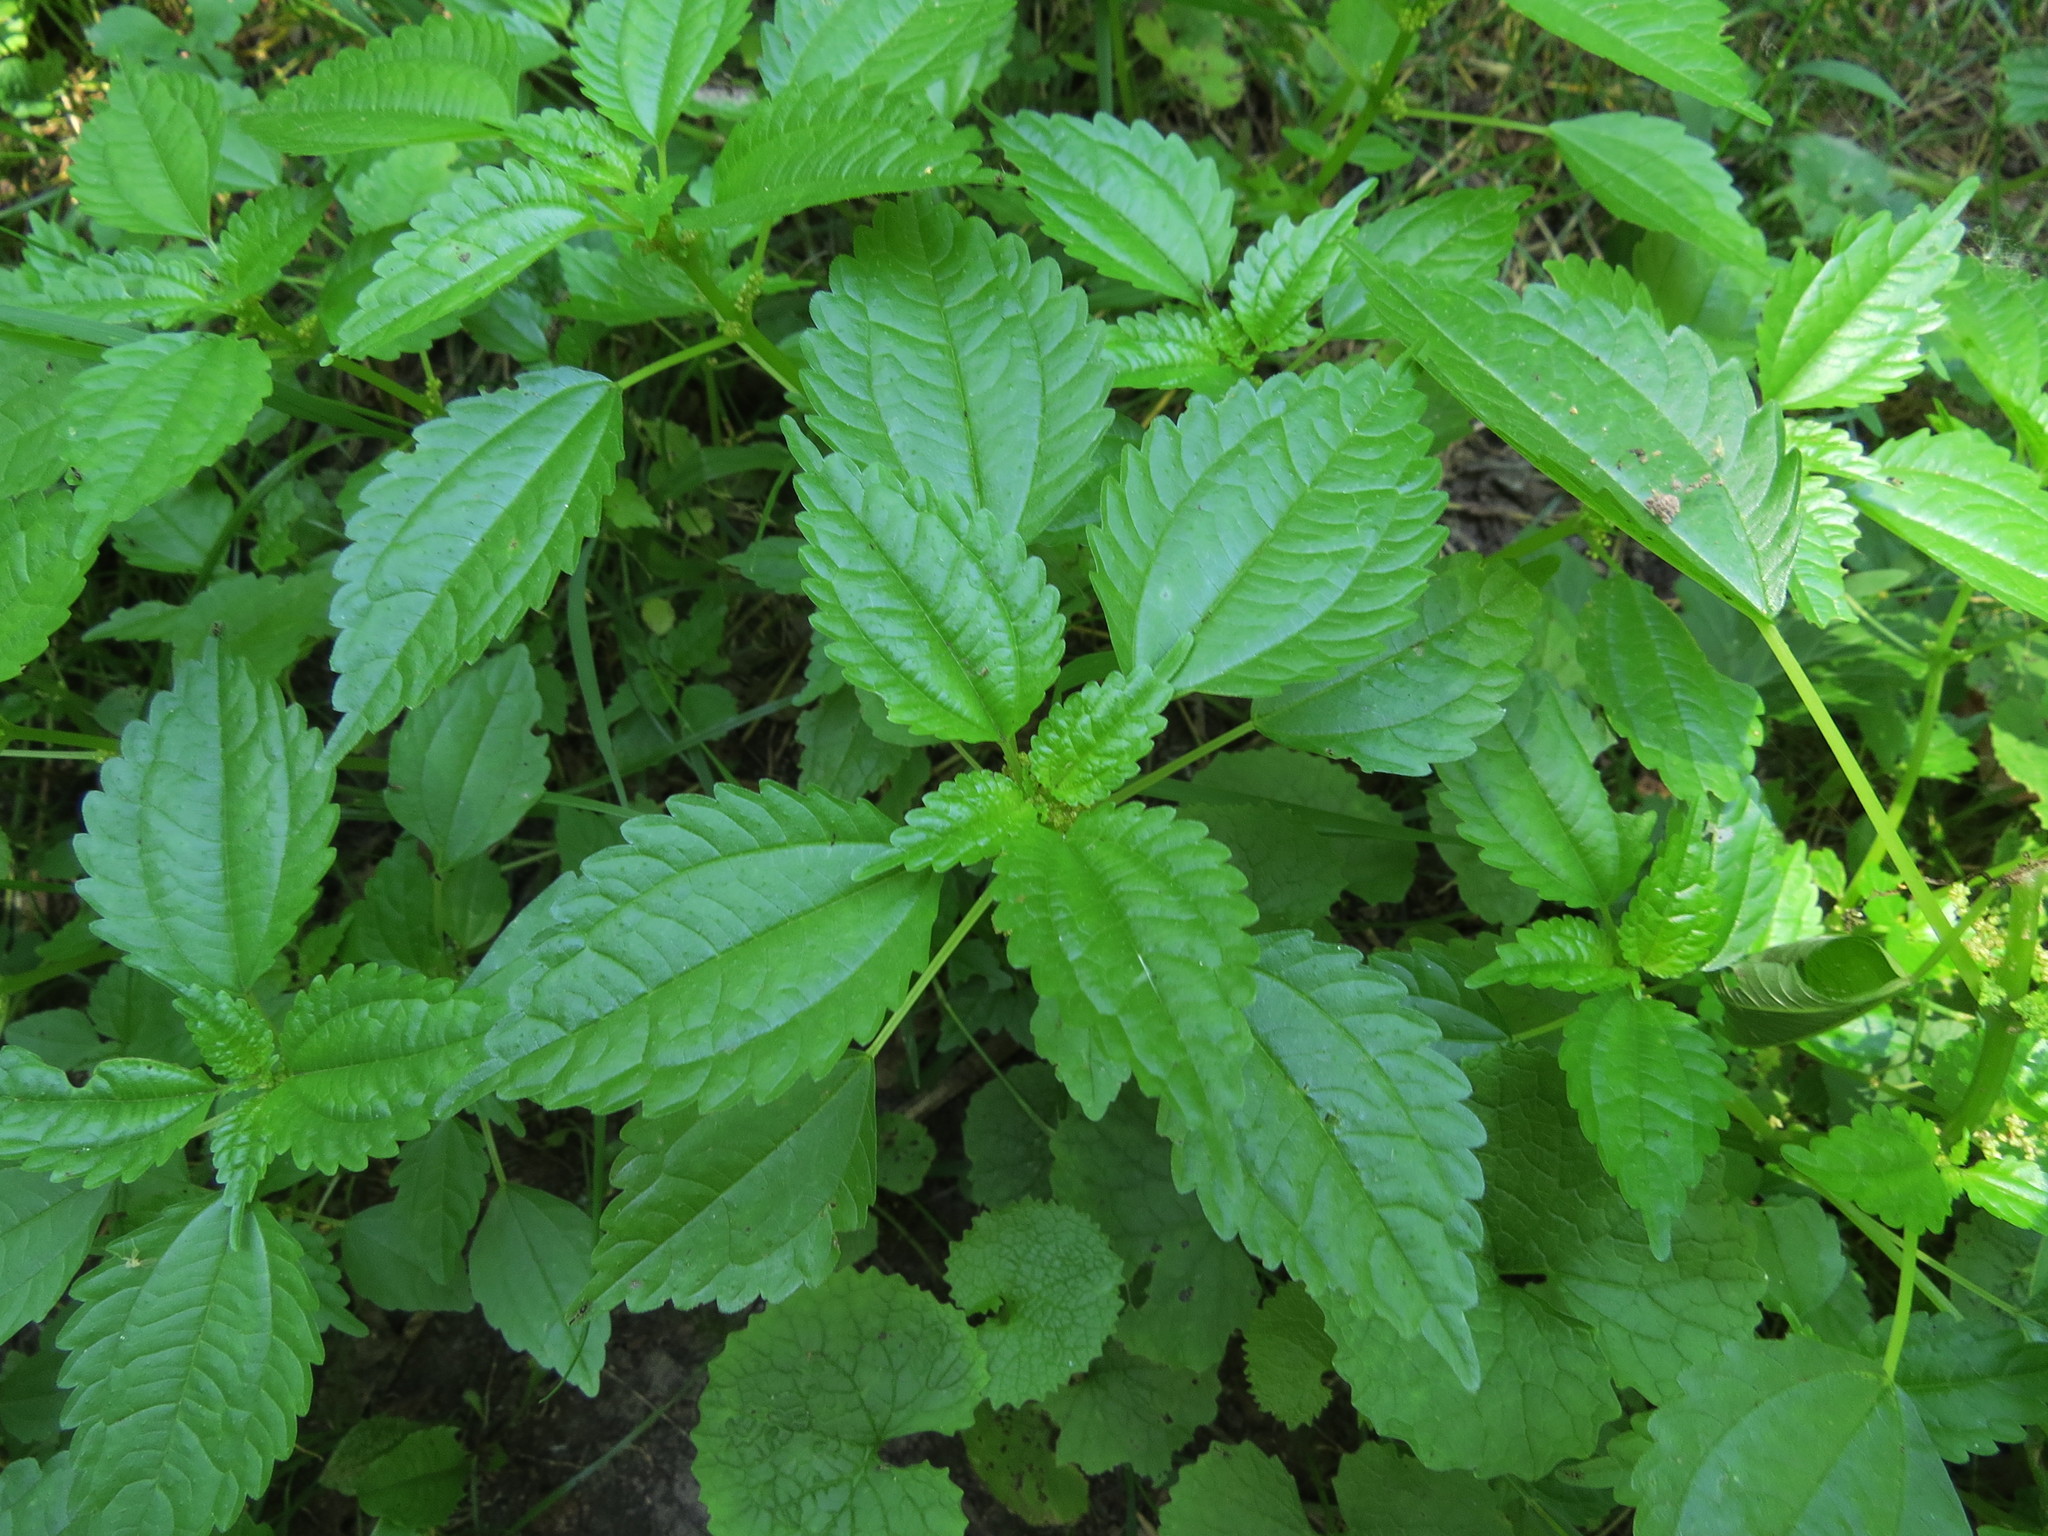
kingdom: Plantae
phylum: Tracheophyta
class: Magnoliopsida
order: Rosales
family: Urticaceae
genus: Pilea
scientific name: Pilea pumila
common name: Clearweed
